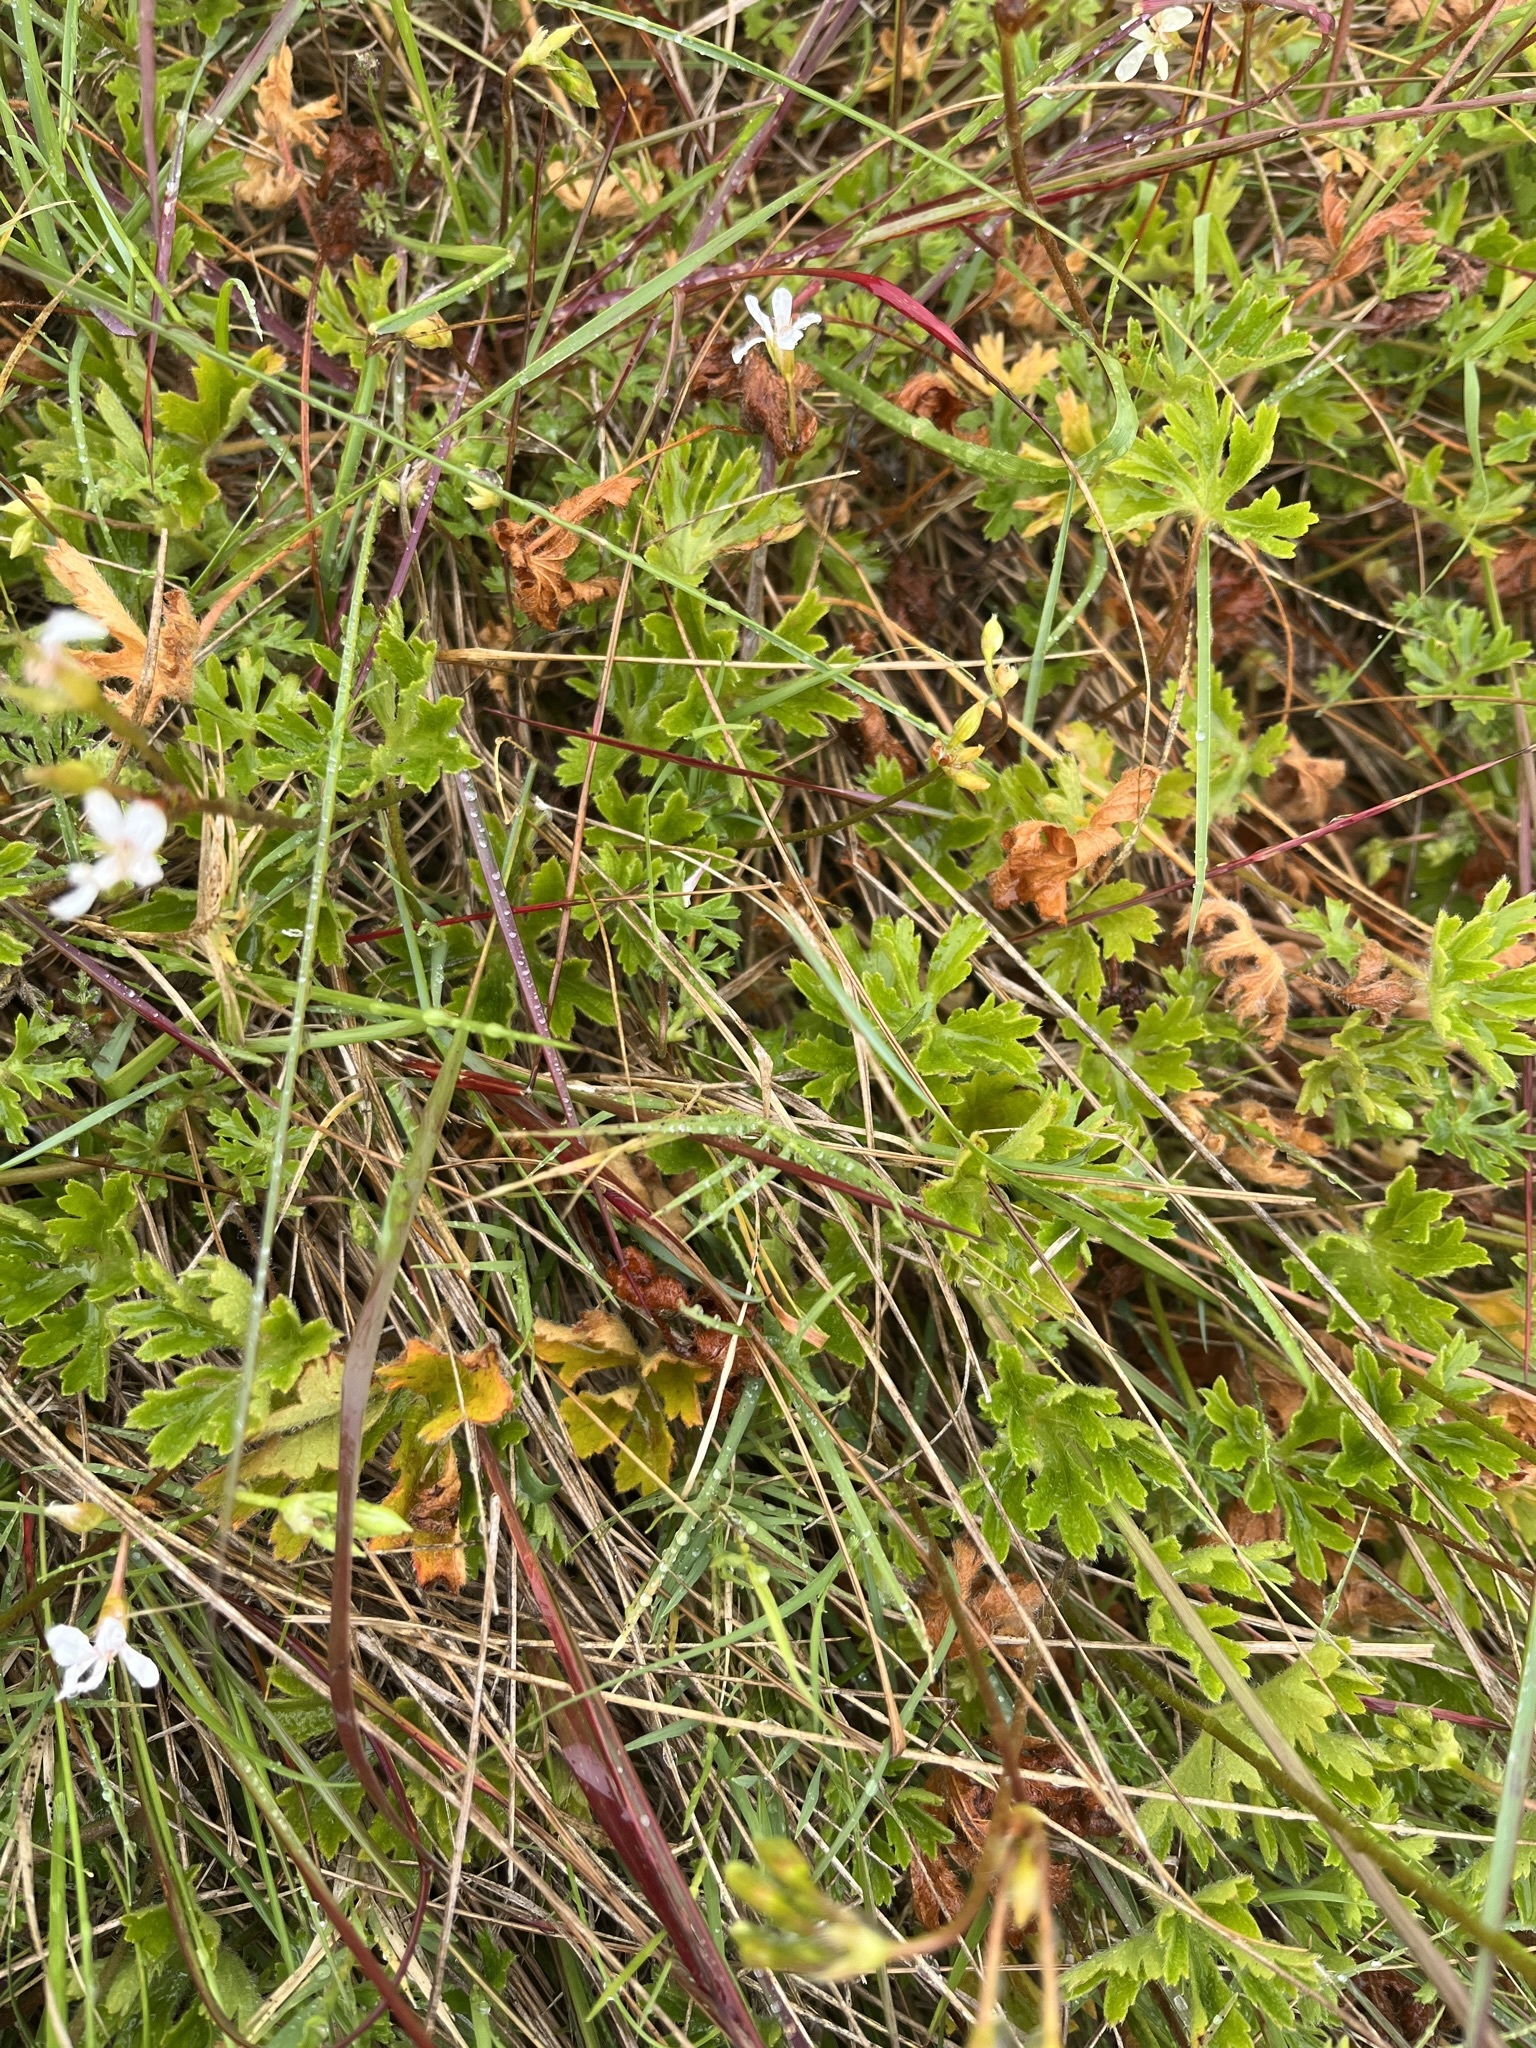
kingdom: Plantae
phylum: Tracheophyta
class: Magnoliopsida
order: Geraniales
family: Geraniaceae
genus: Pelargonium
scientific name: Pelargonium alchemilloides
